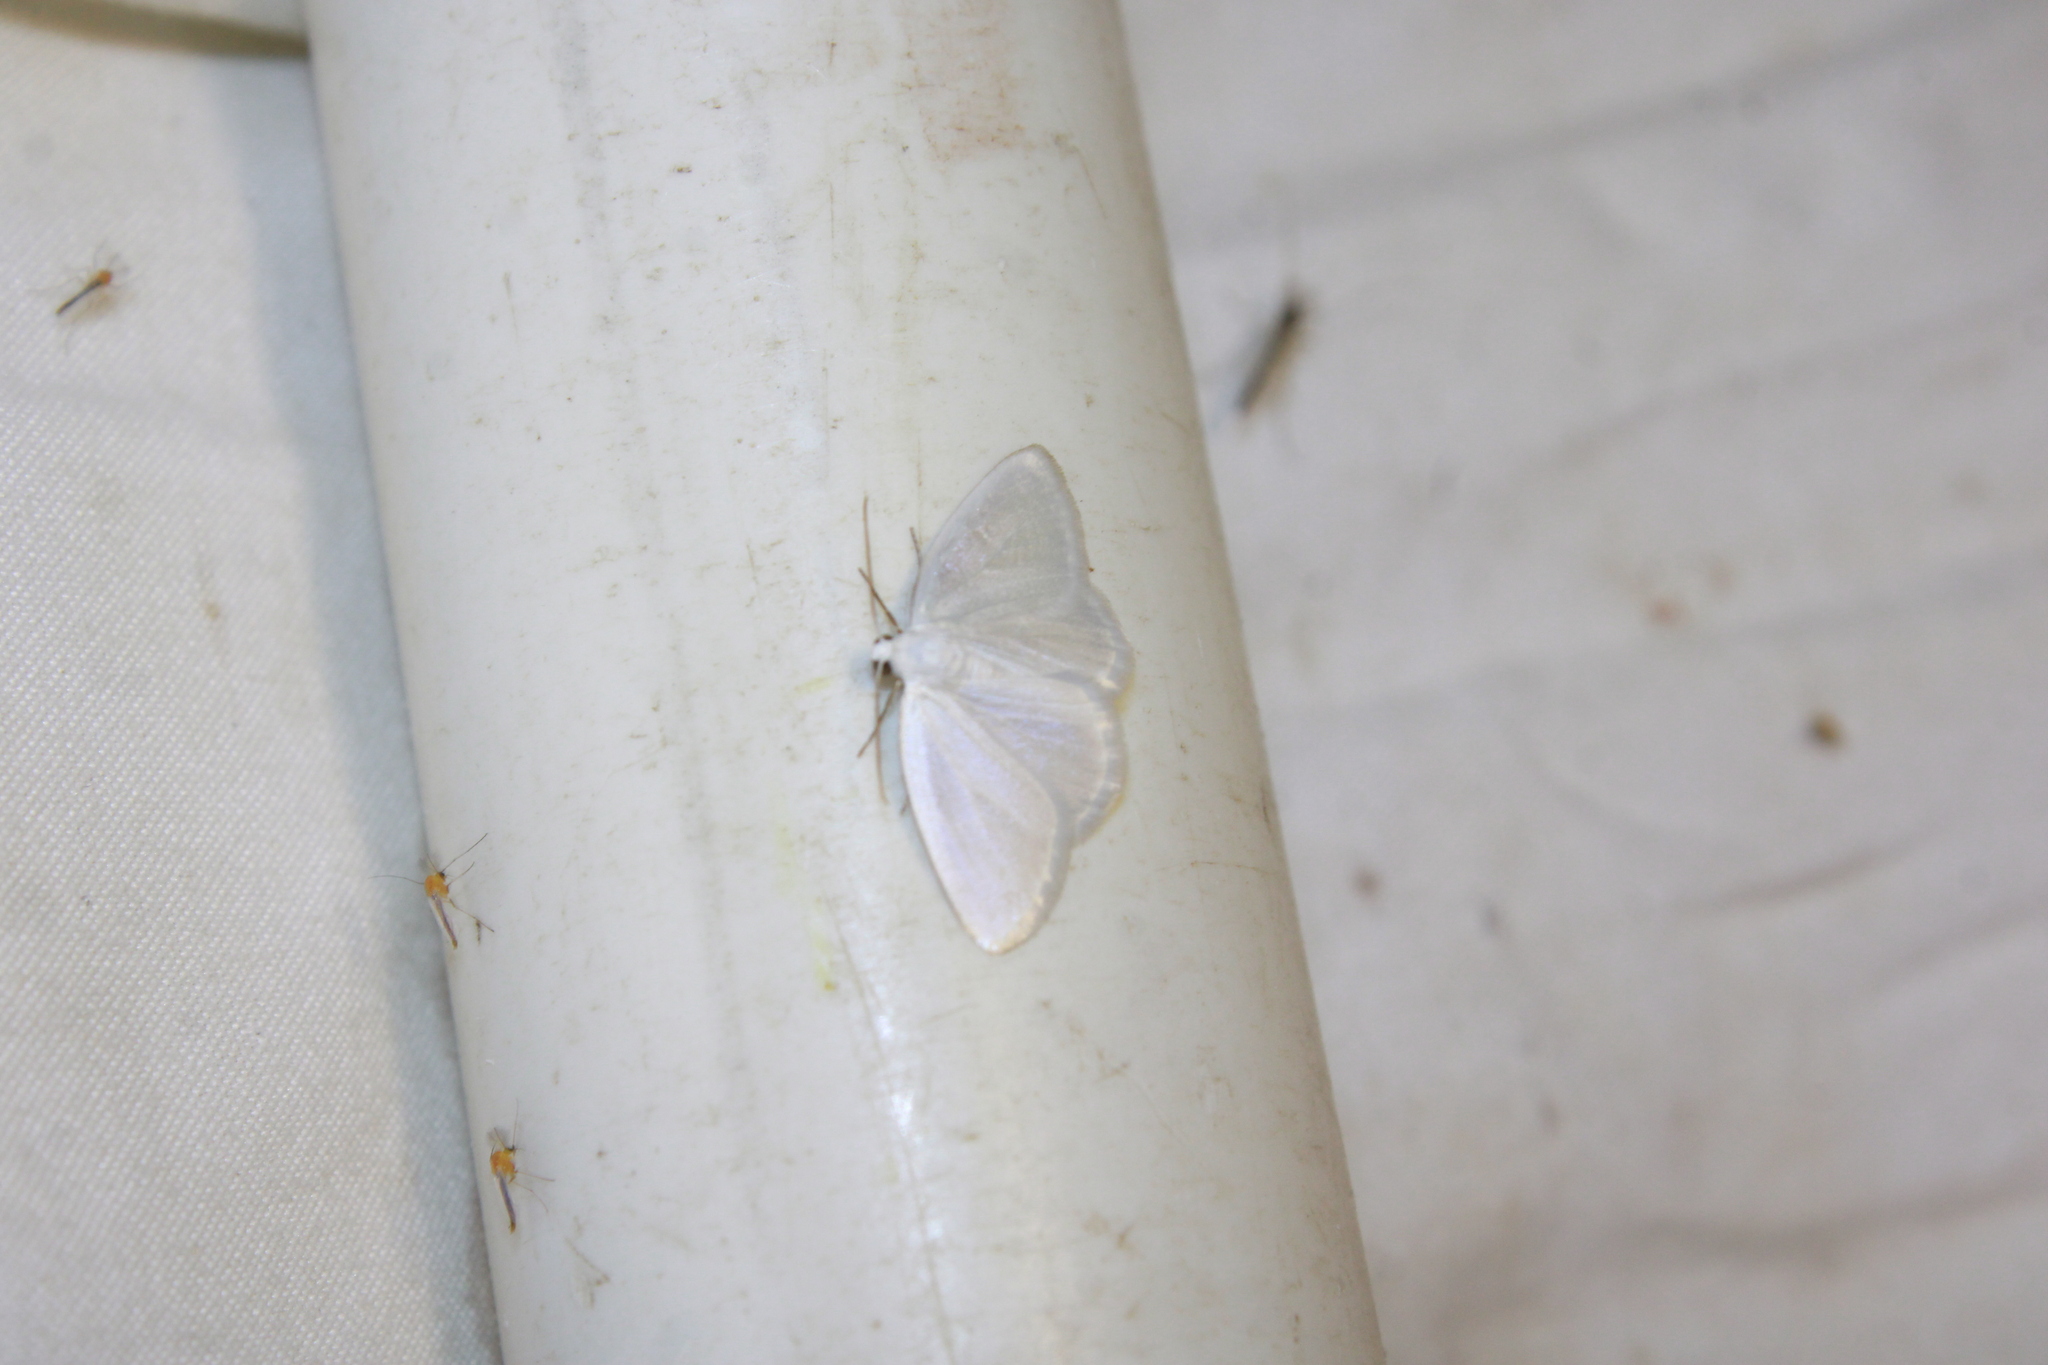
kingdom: Animalia
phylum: Arthropoda
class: Insecta
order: Lepidoptera
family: Geometridae
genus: Lomographa
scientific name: Lomographa vestaliata
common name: White spring moth
